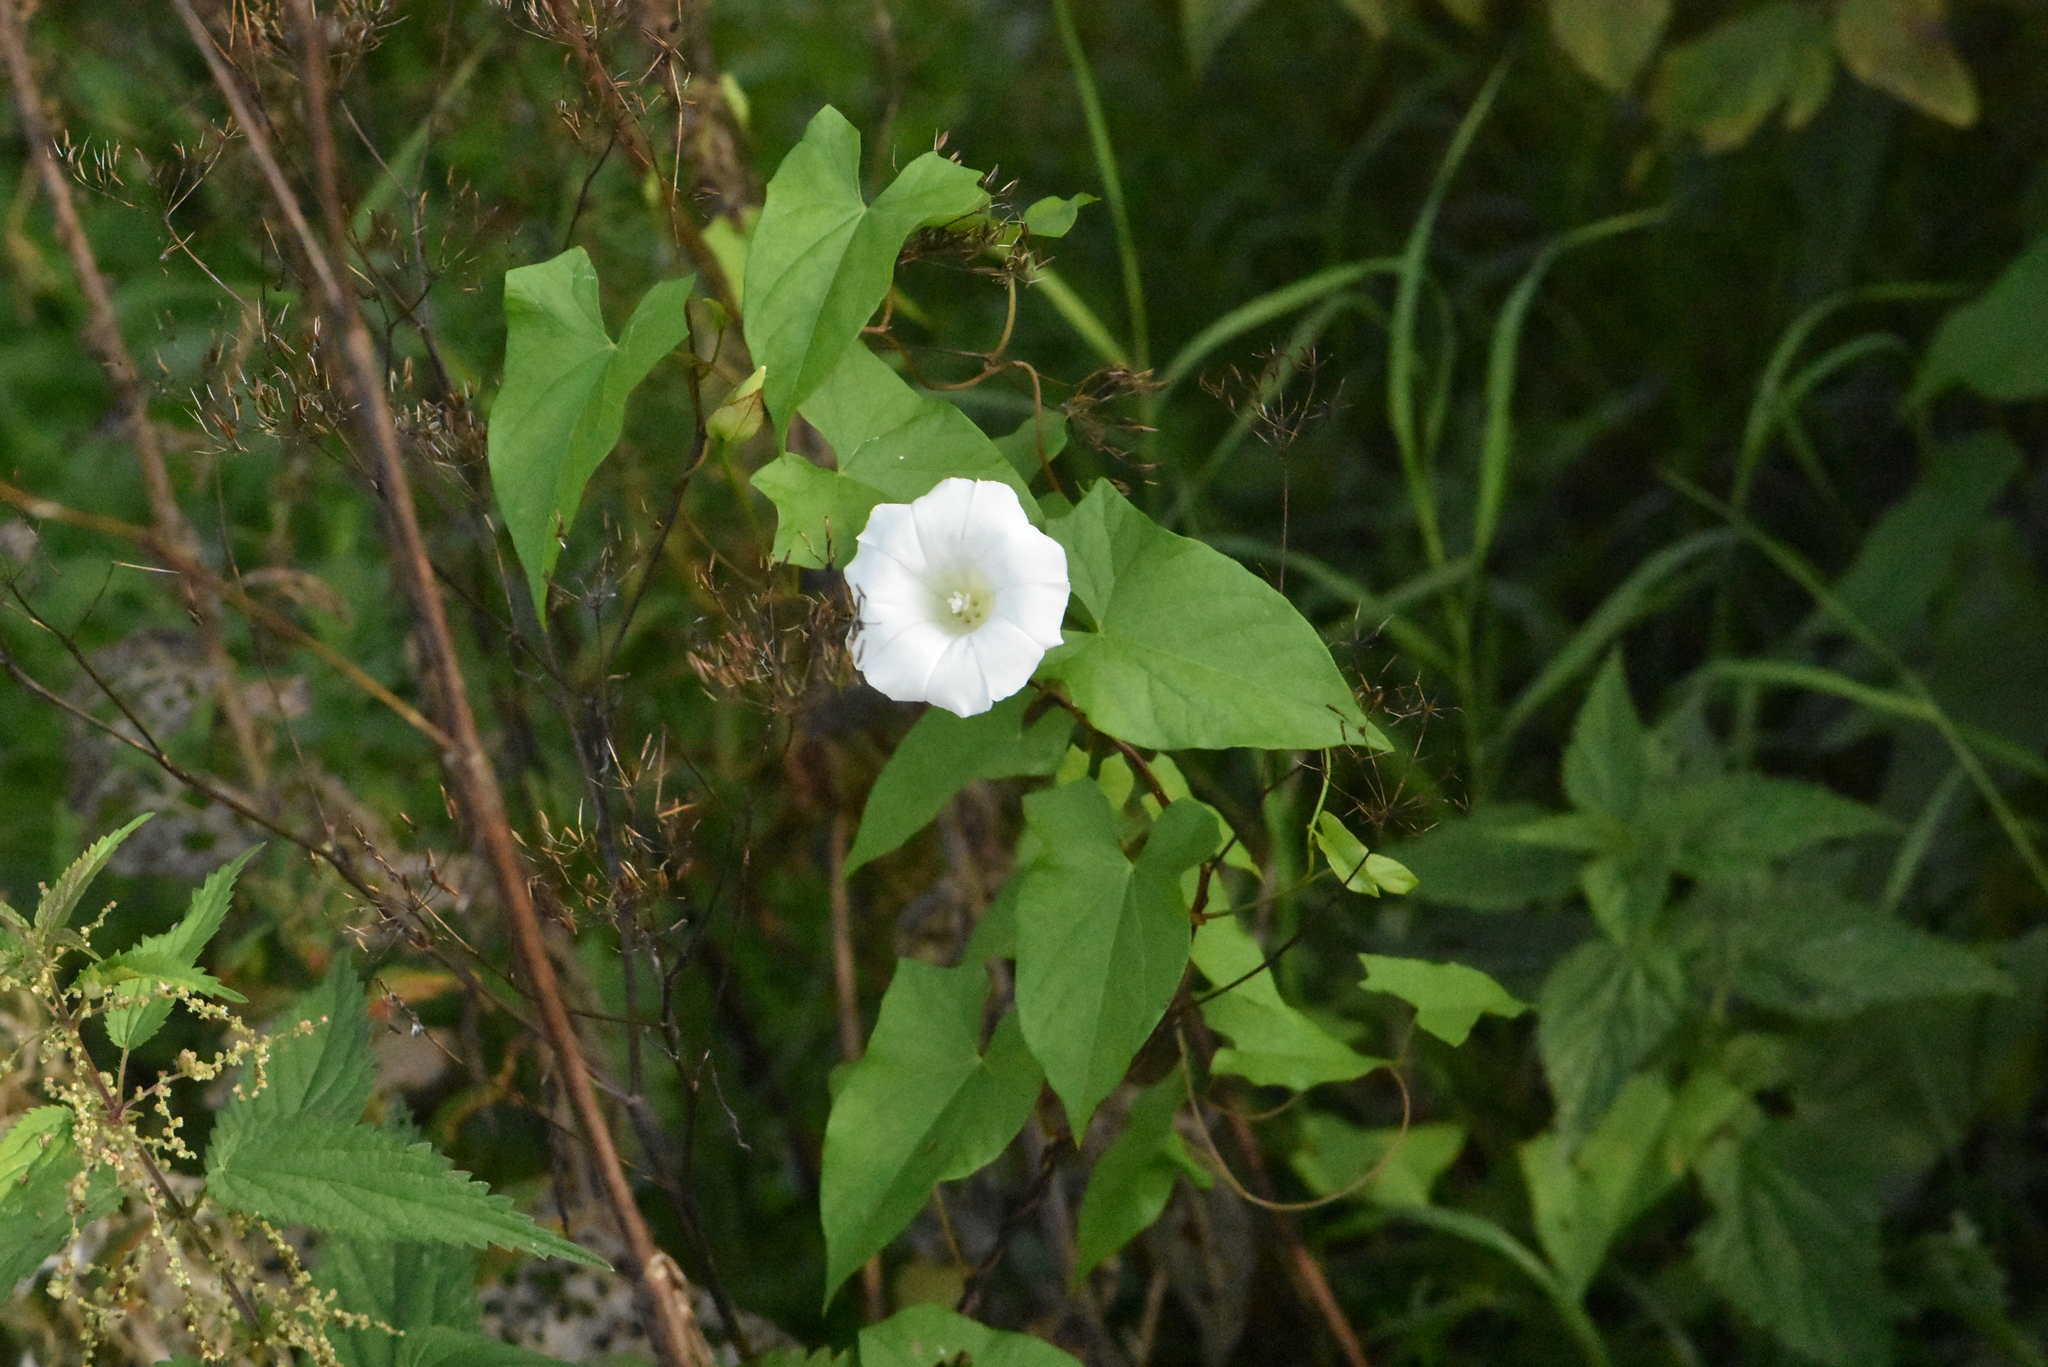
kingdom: Plantae
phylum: Tracheophyta
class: Magnoliopsida
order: Solanales
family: Convolvulaceae
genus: Calystegia
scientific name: Calystegia sepium
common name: Hedge bindweed
